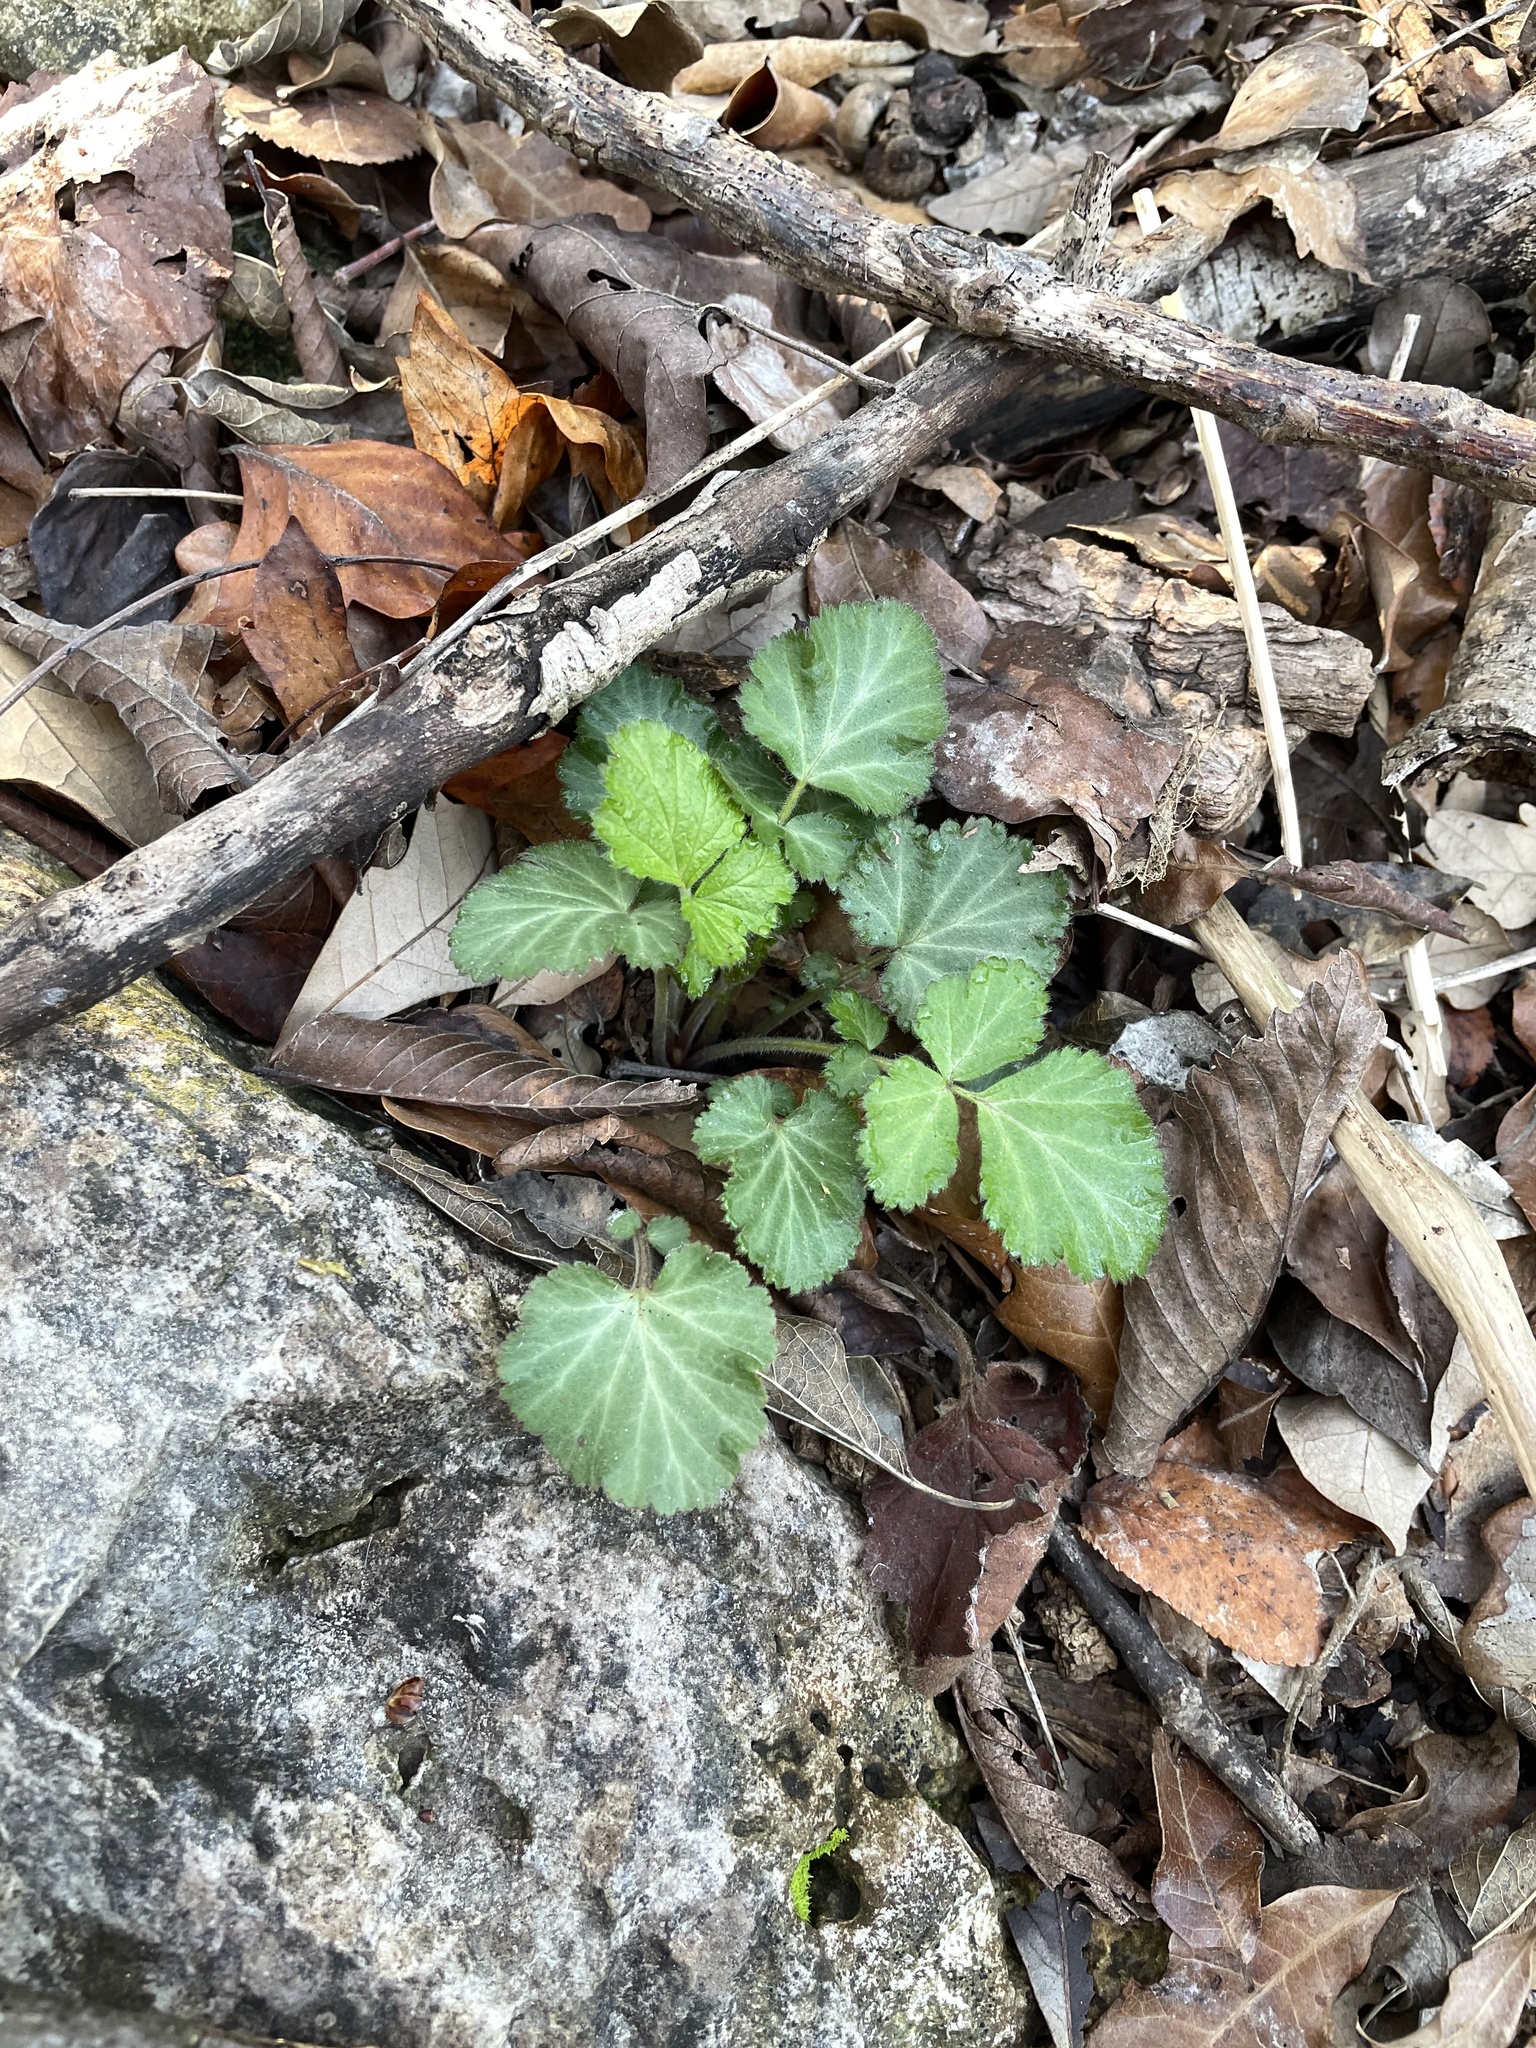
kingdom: Plantae
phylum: Tracheophyta
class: Magnoliopsida
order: Rosales
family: Rosaceae
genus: Geum
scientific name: Geum canadense
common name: White avens
